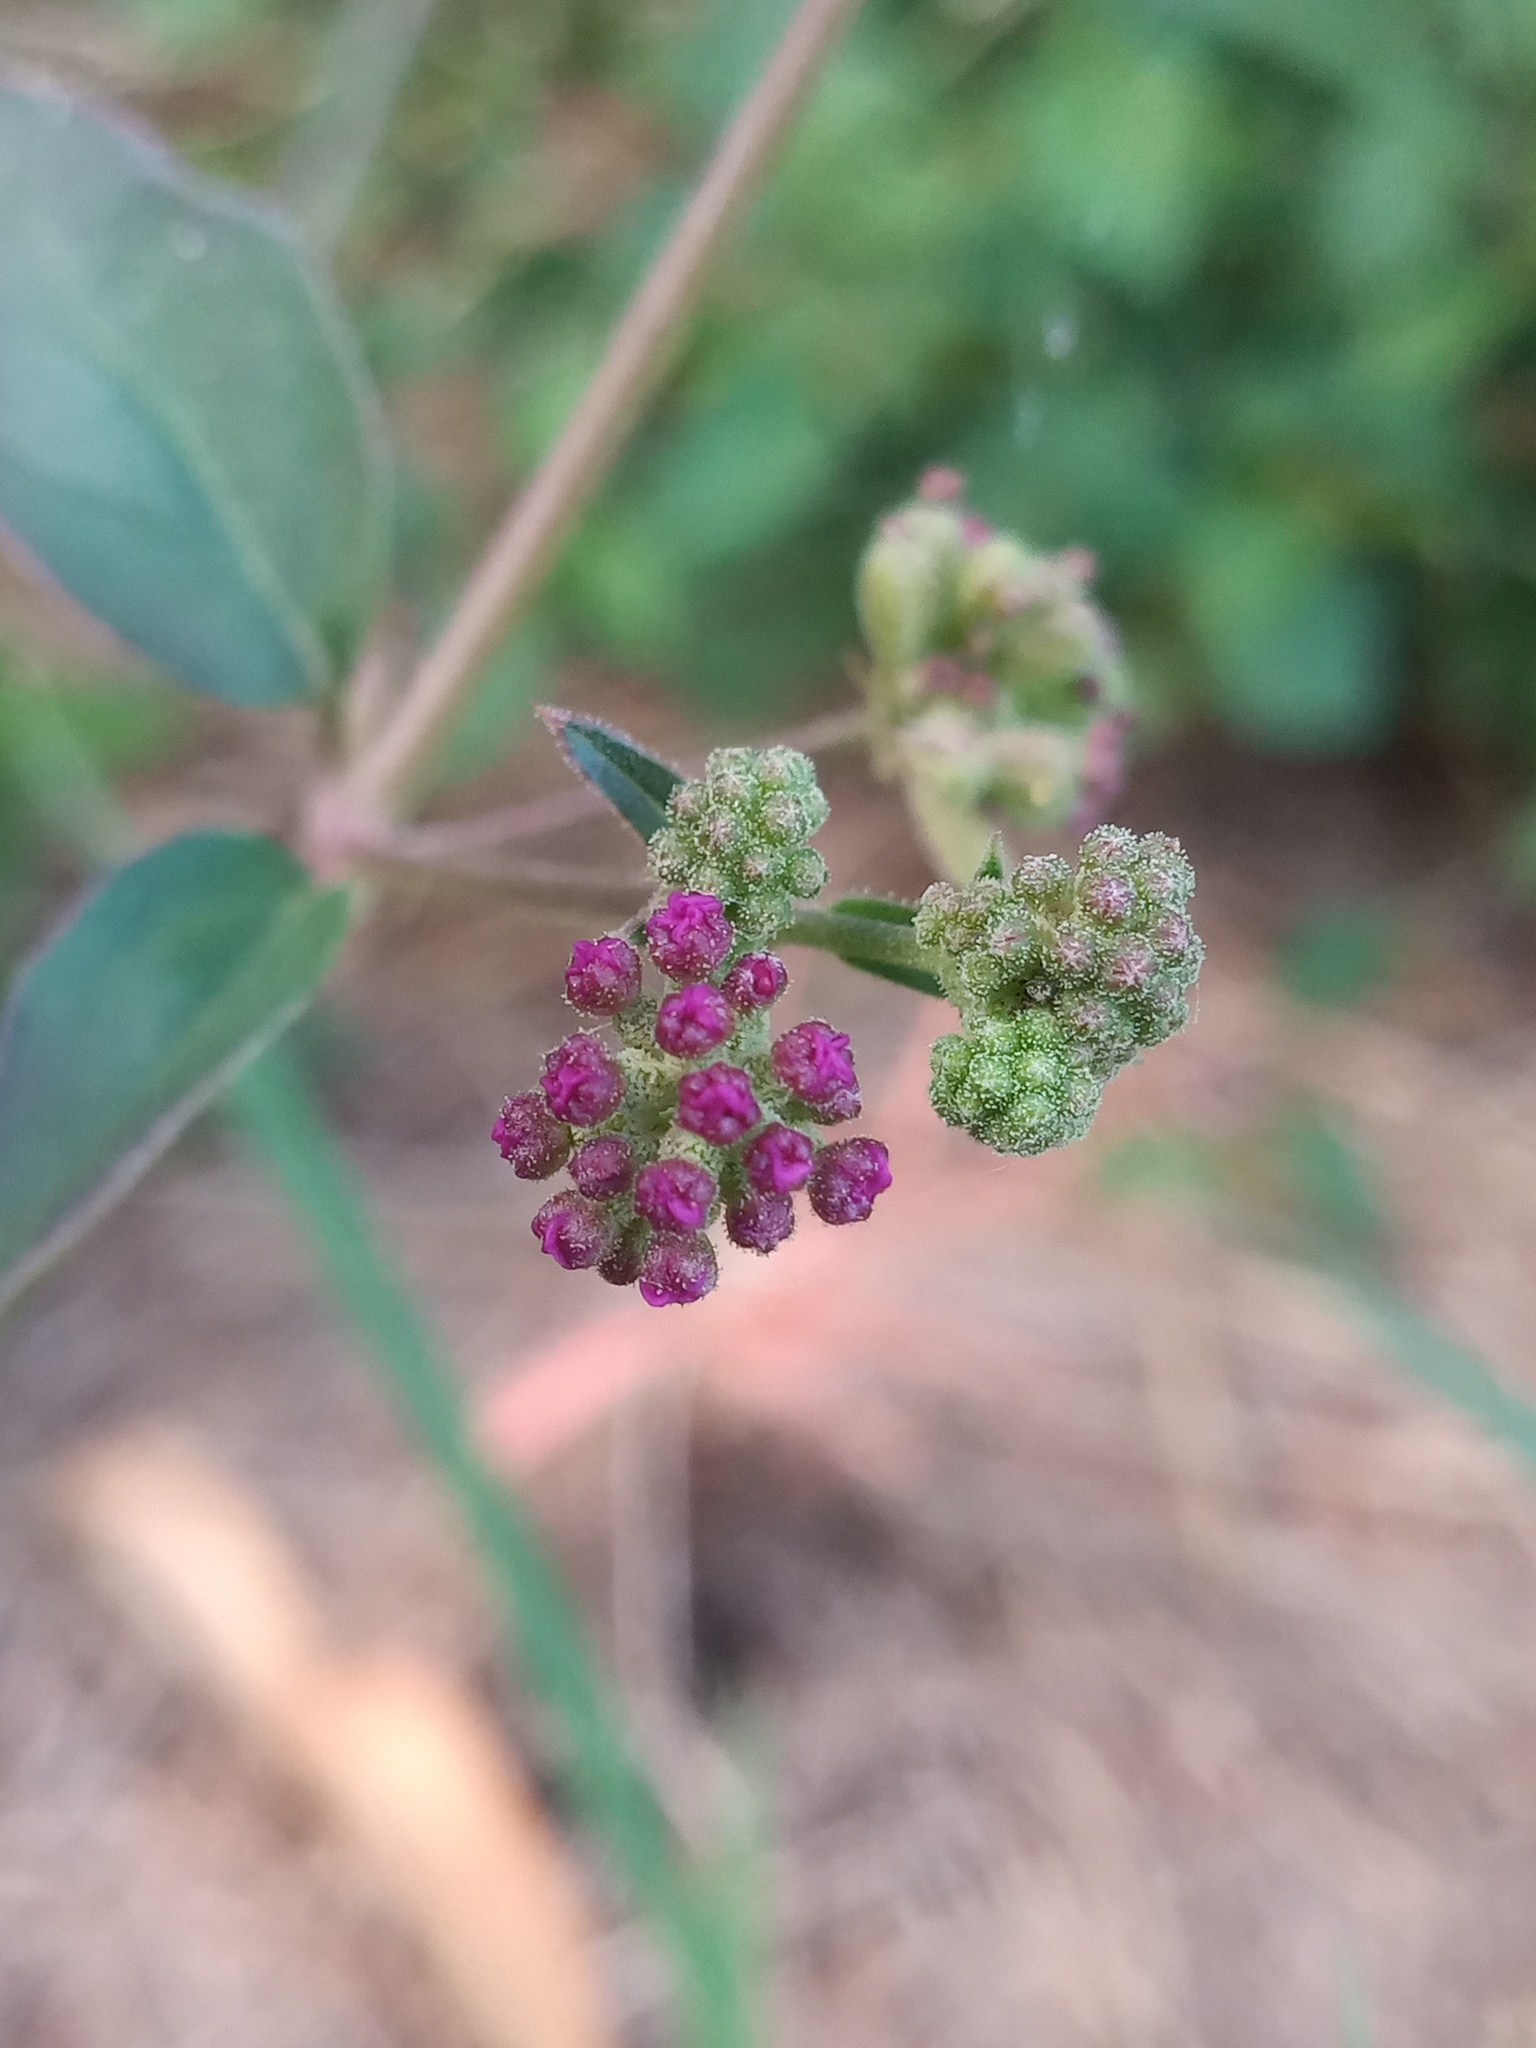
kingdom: Plantae
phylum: Tracheophyta
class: Magnoliopsida
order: Caryophyllales
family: Nyctaginaceae
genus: Boerhavia
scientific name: Boerhavia coccinea
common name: Scarlet spiderling
